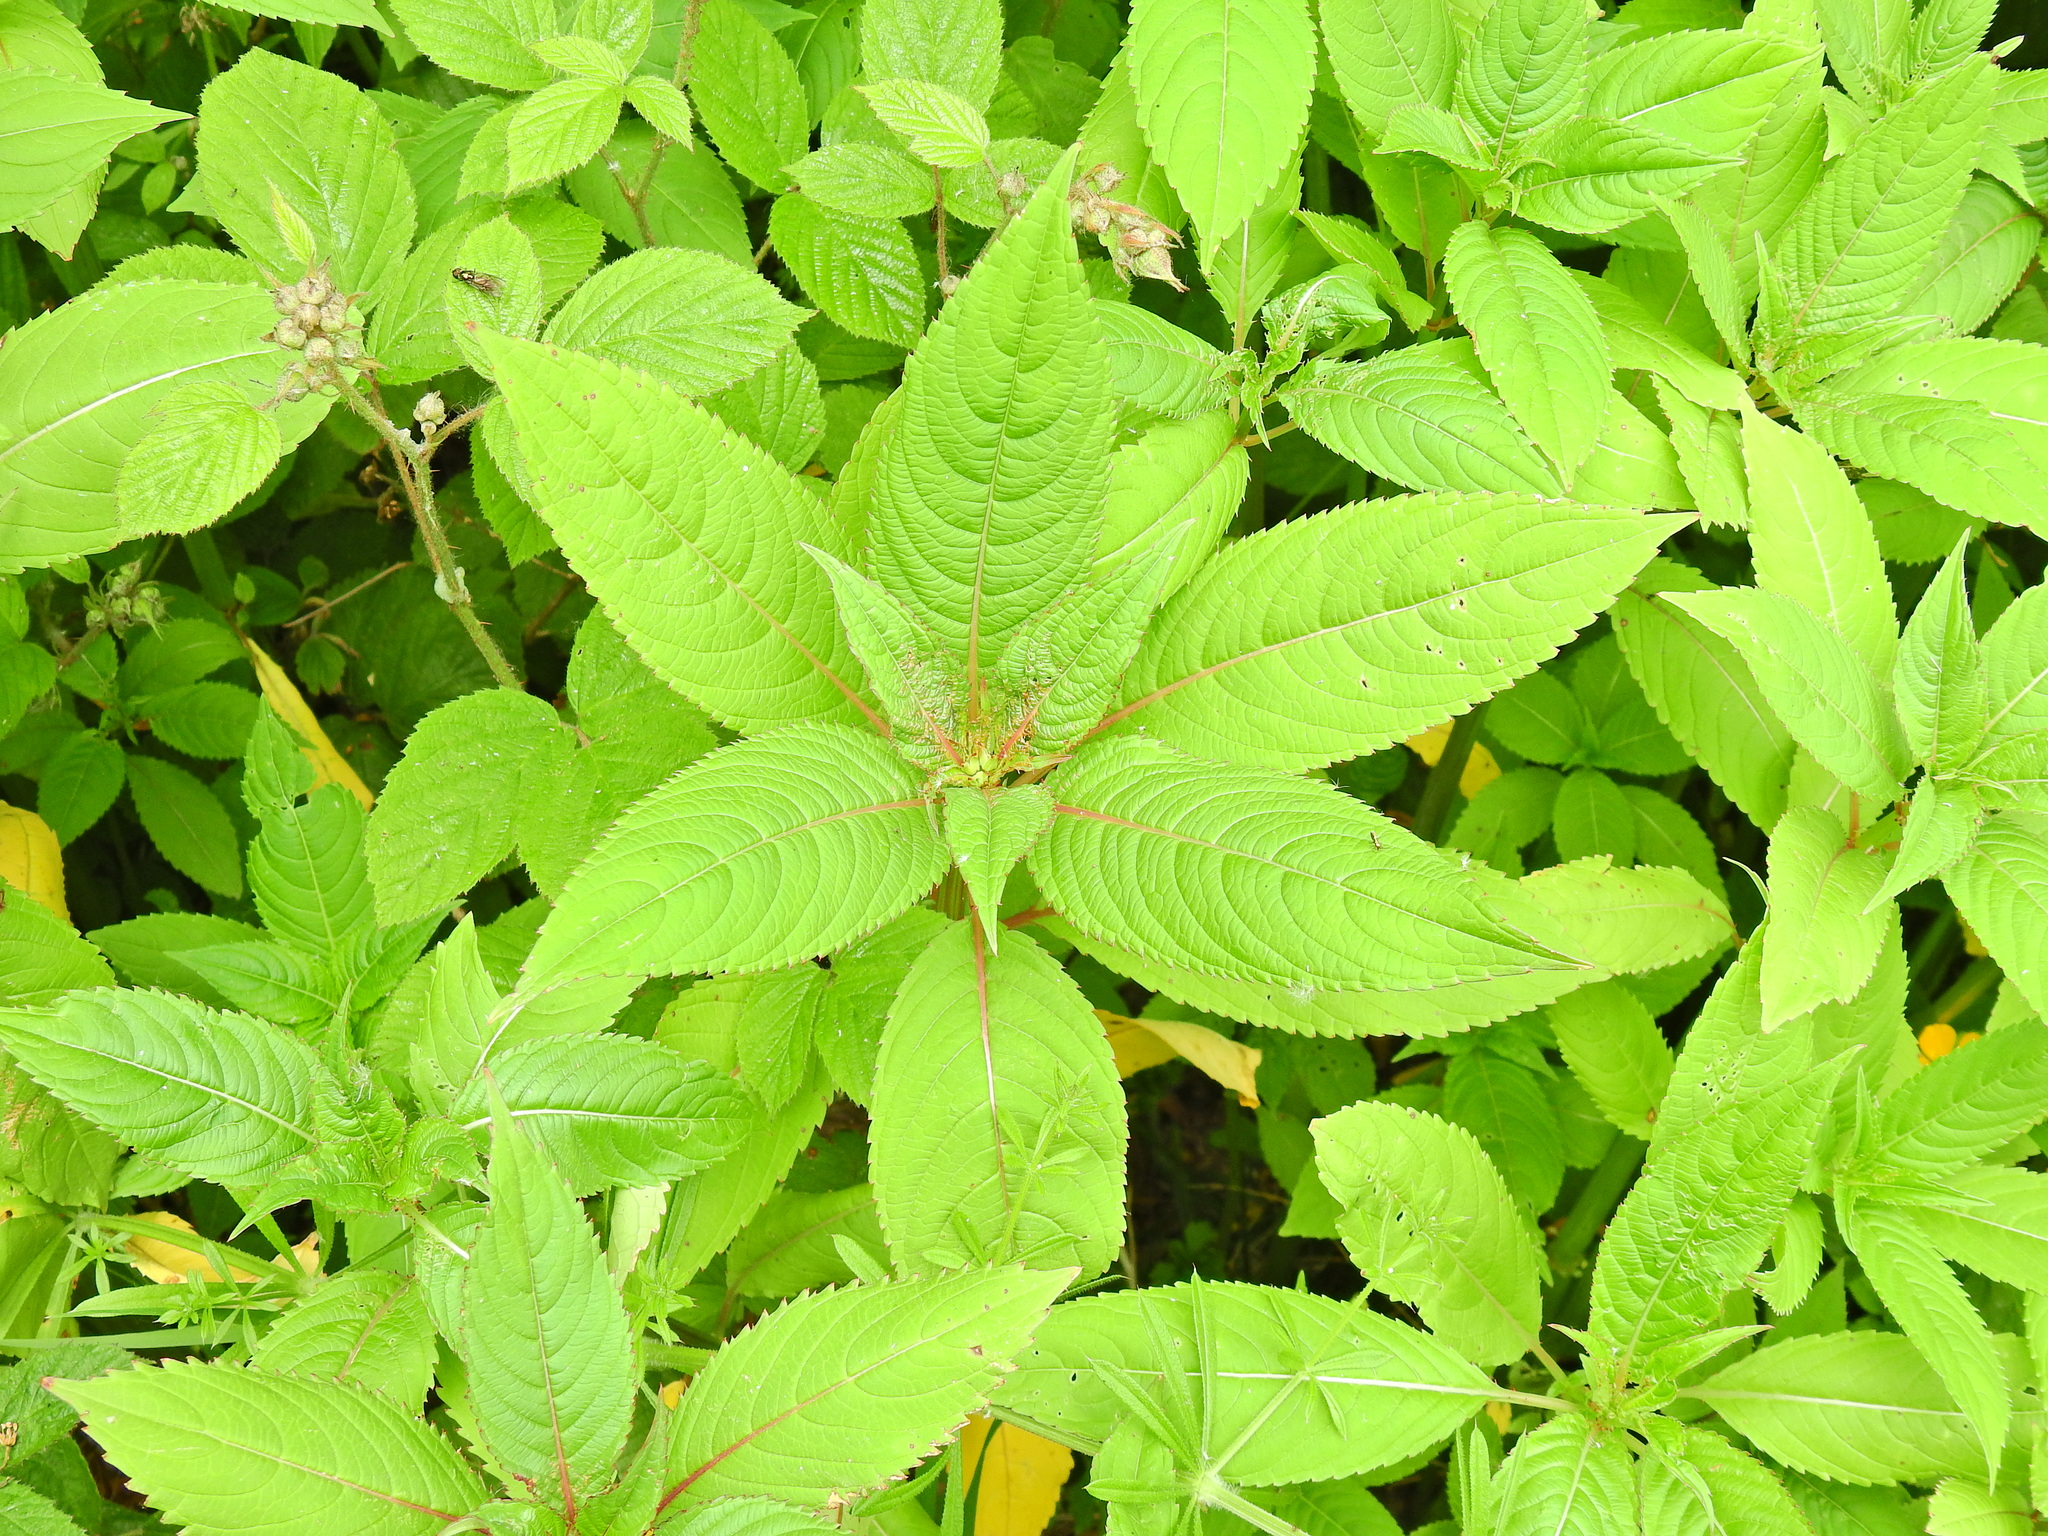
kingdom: Plantae
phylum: Tracheophyta
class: Magnoliopsida
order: Ericales
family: Balsaminaceae
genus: Impatiens
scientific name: Impatiens glandulifera
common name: Himalayan balsam
